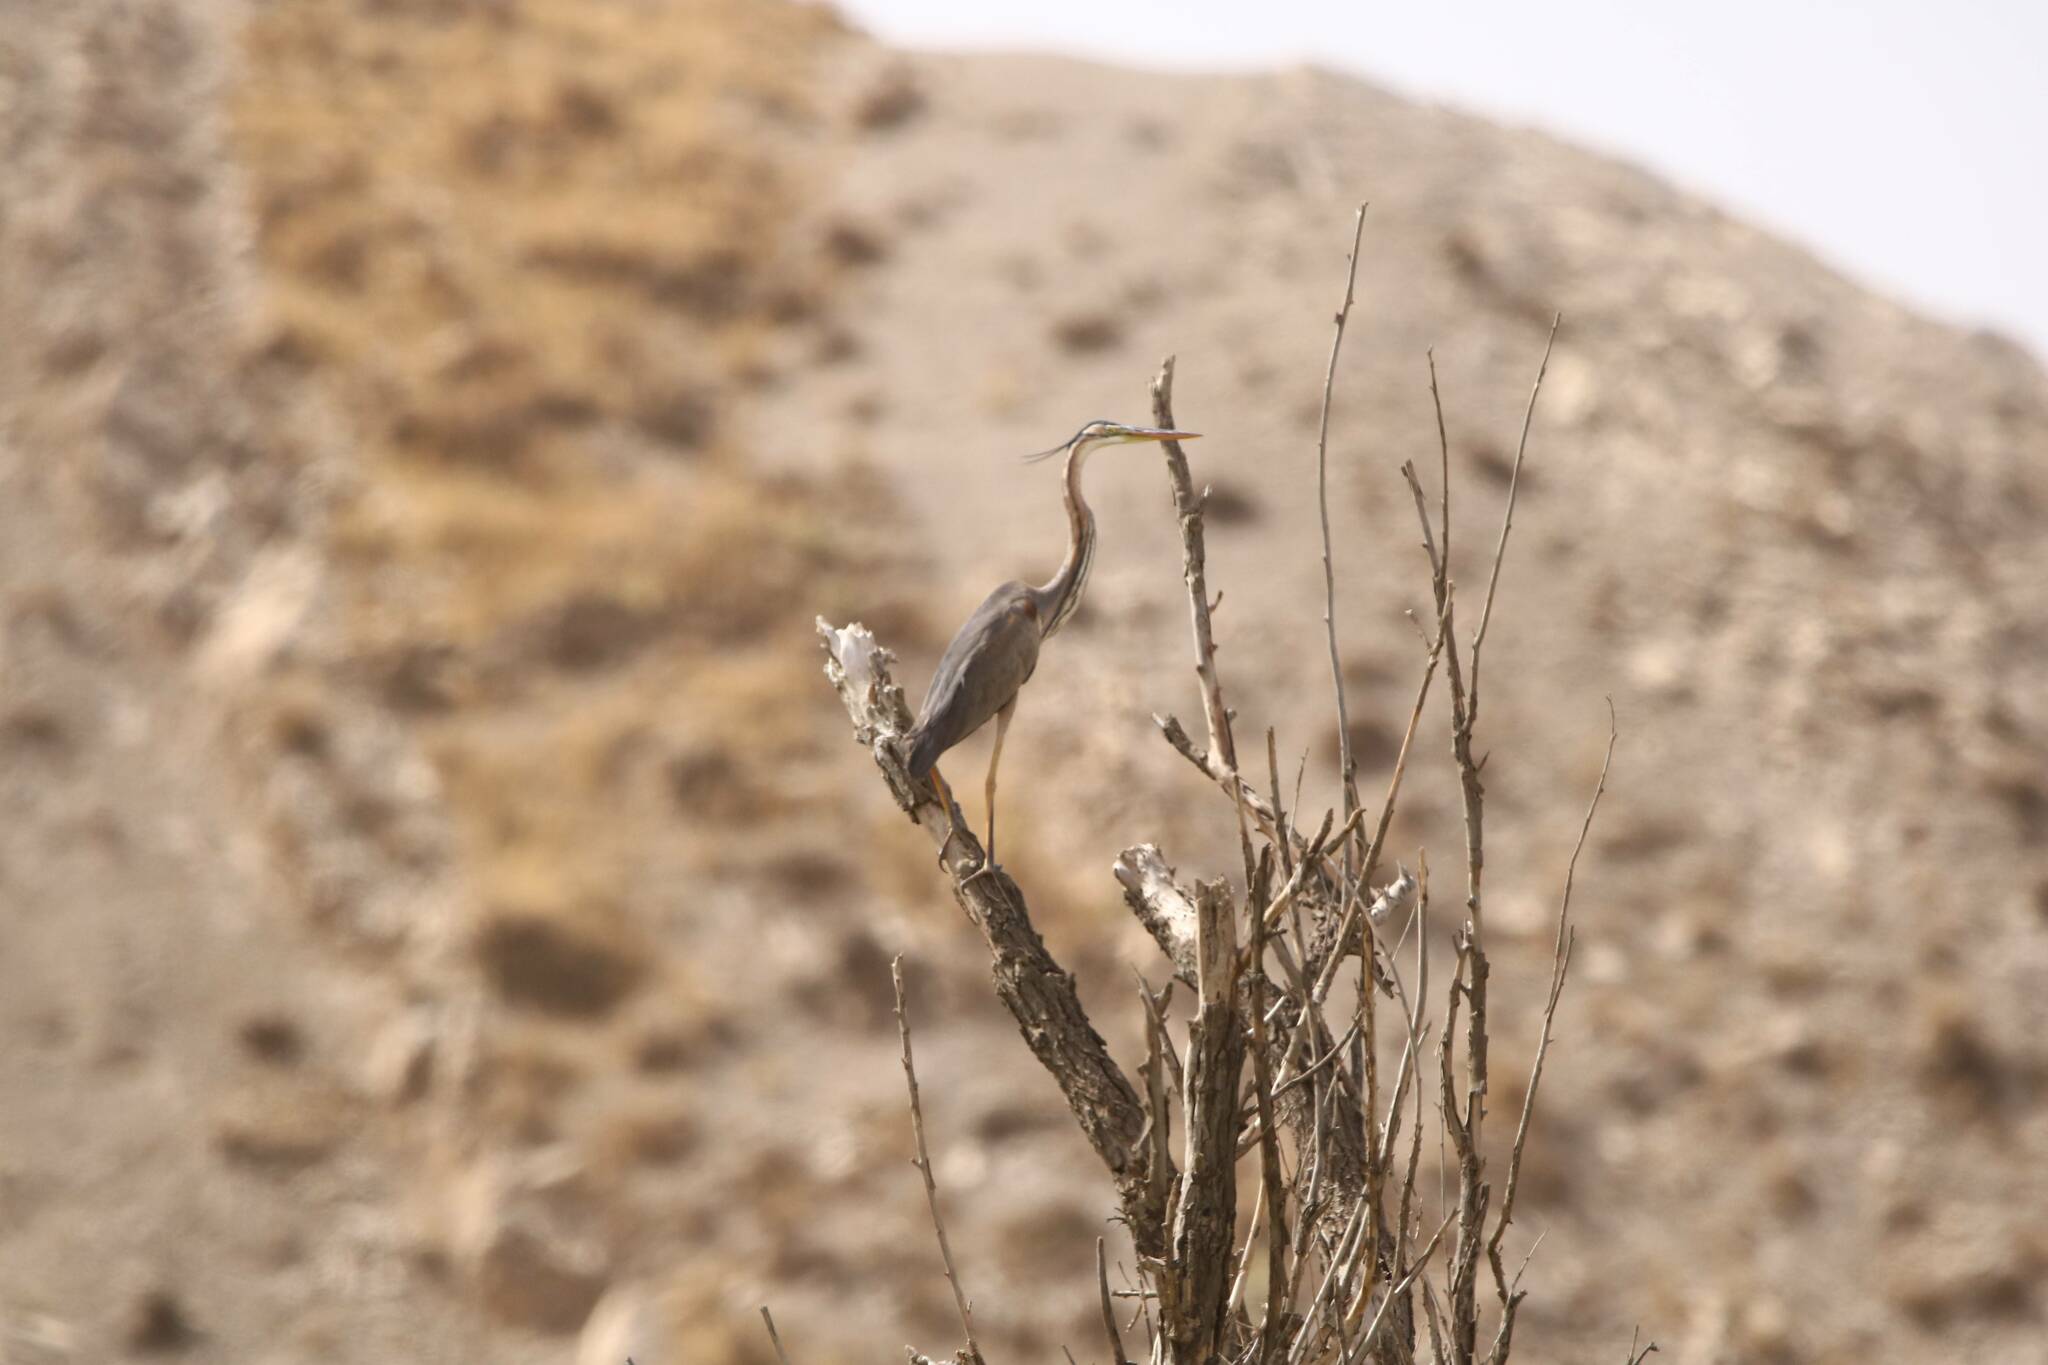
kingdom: Animalia
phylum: Chordata
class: Aves
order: Pelecaniformes
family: Ardeidae
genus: Ardea
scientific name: Ardea purpurea
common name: Purple heron
